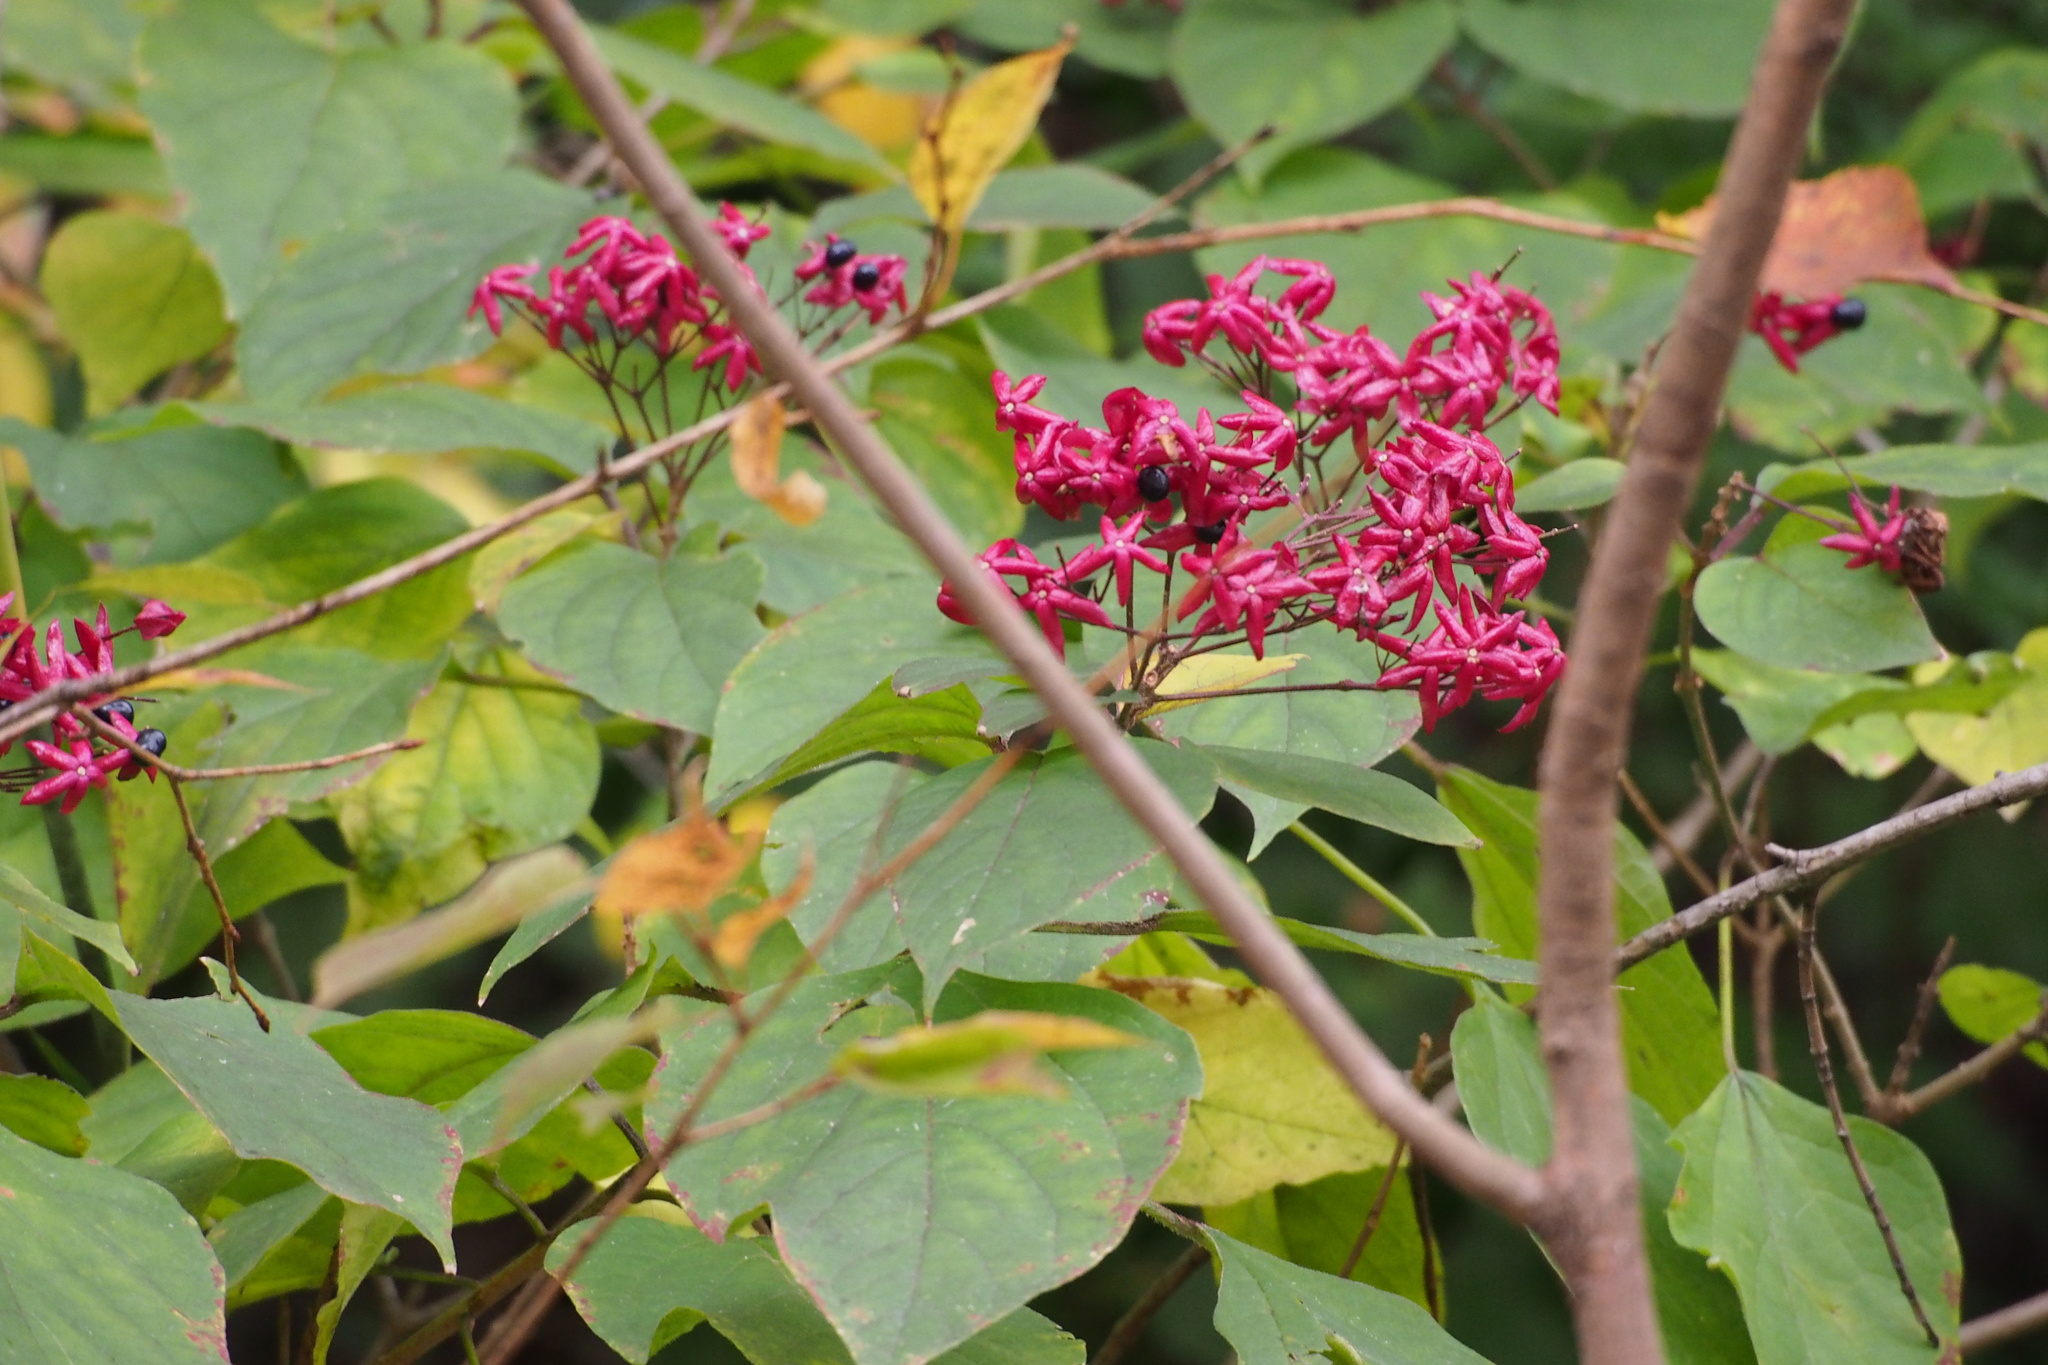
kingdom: Plantae
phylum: Tracheophyta
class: Magnoliopsida
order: Lamiales
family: Lamiaceae
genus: Clerodendrum
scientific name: Clerodendrum trichotomum
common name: Harlequin glorybower
